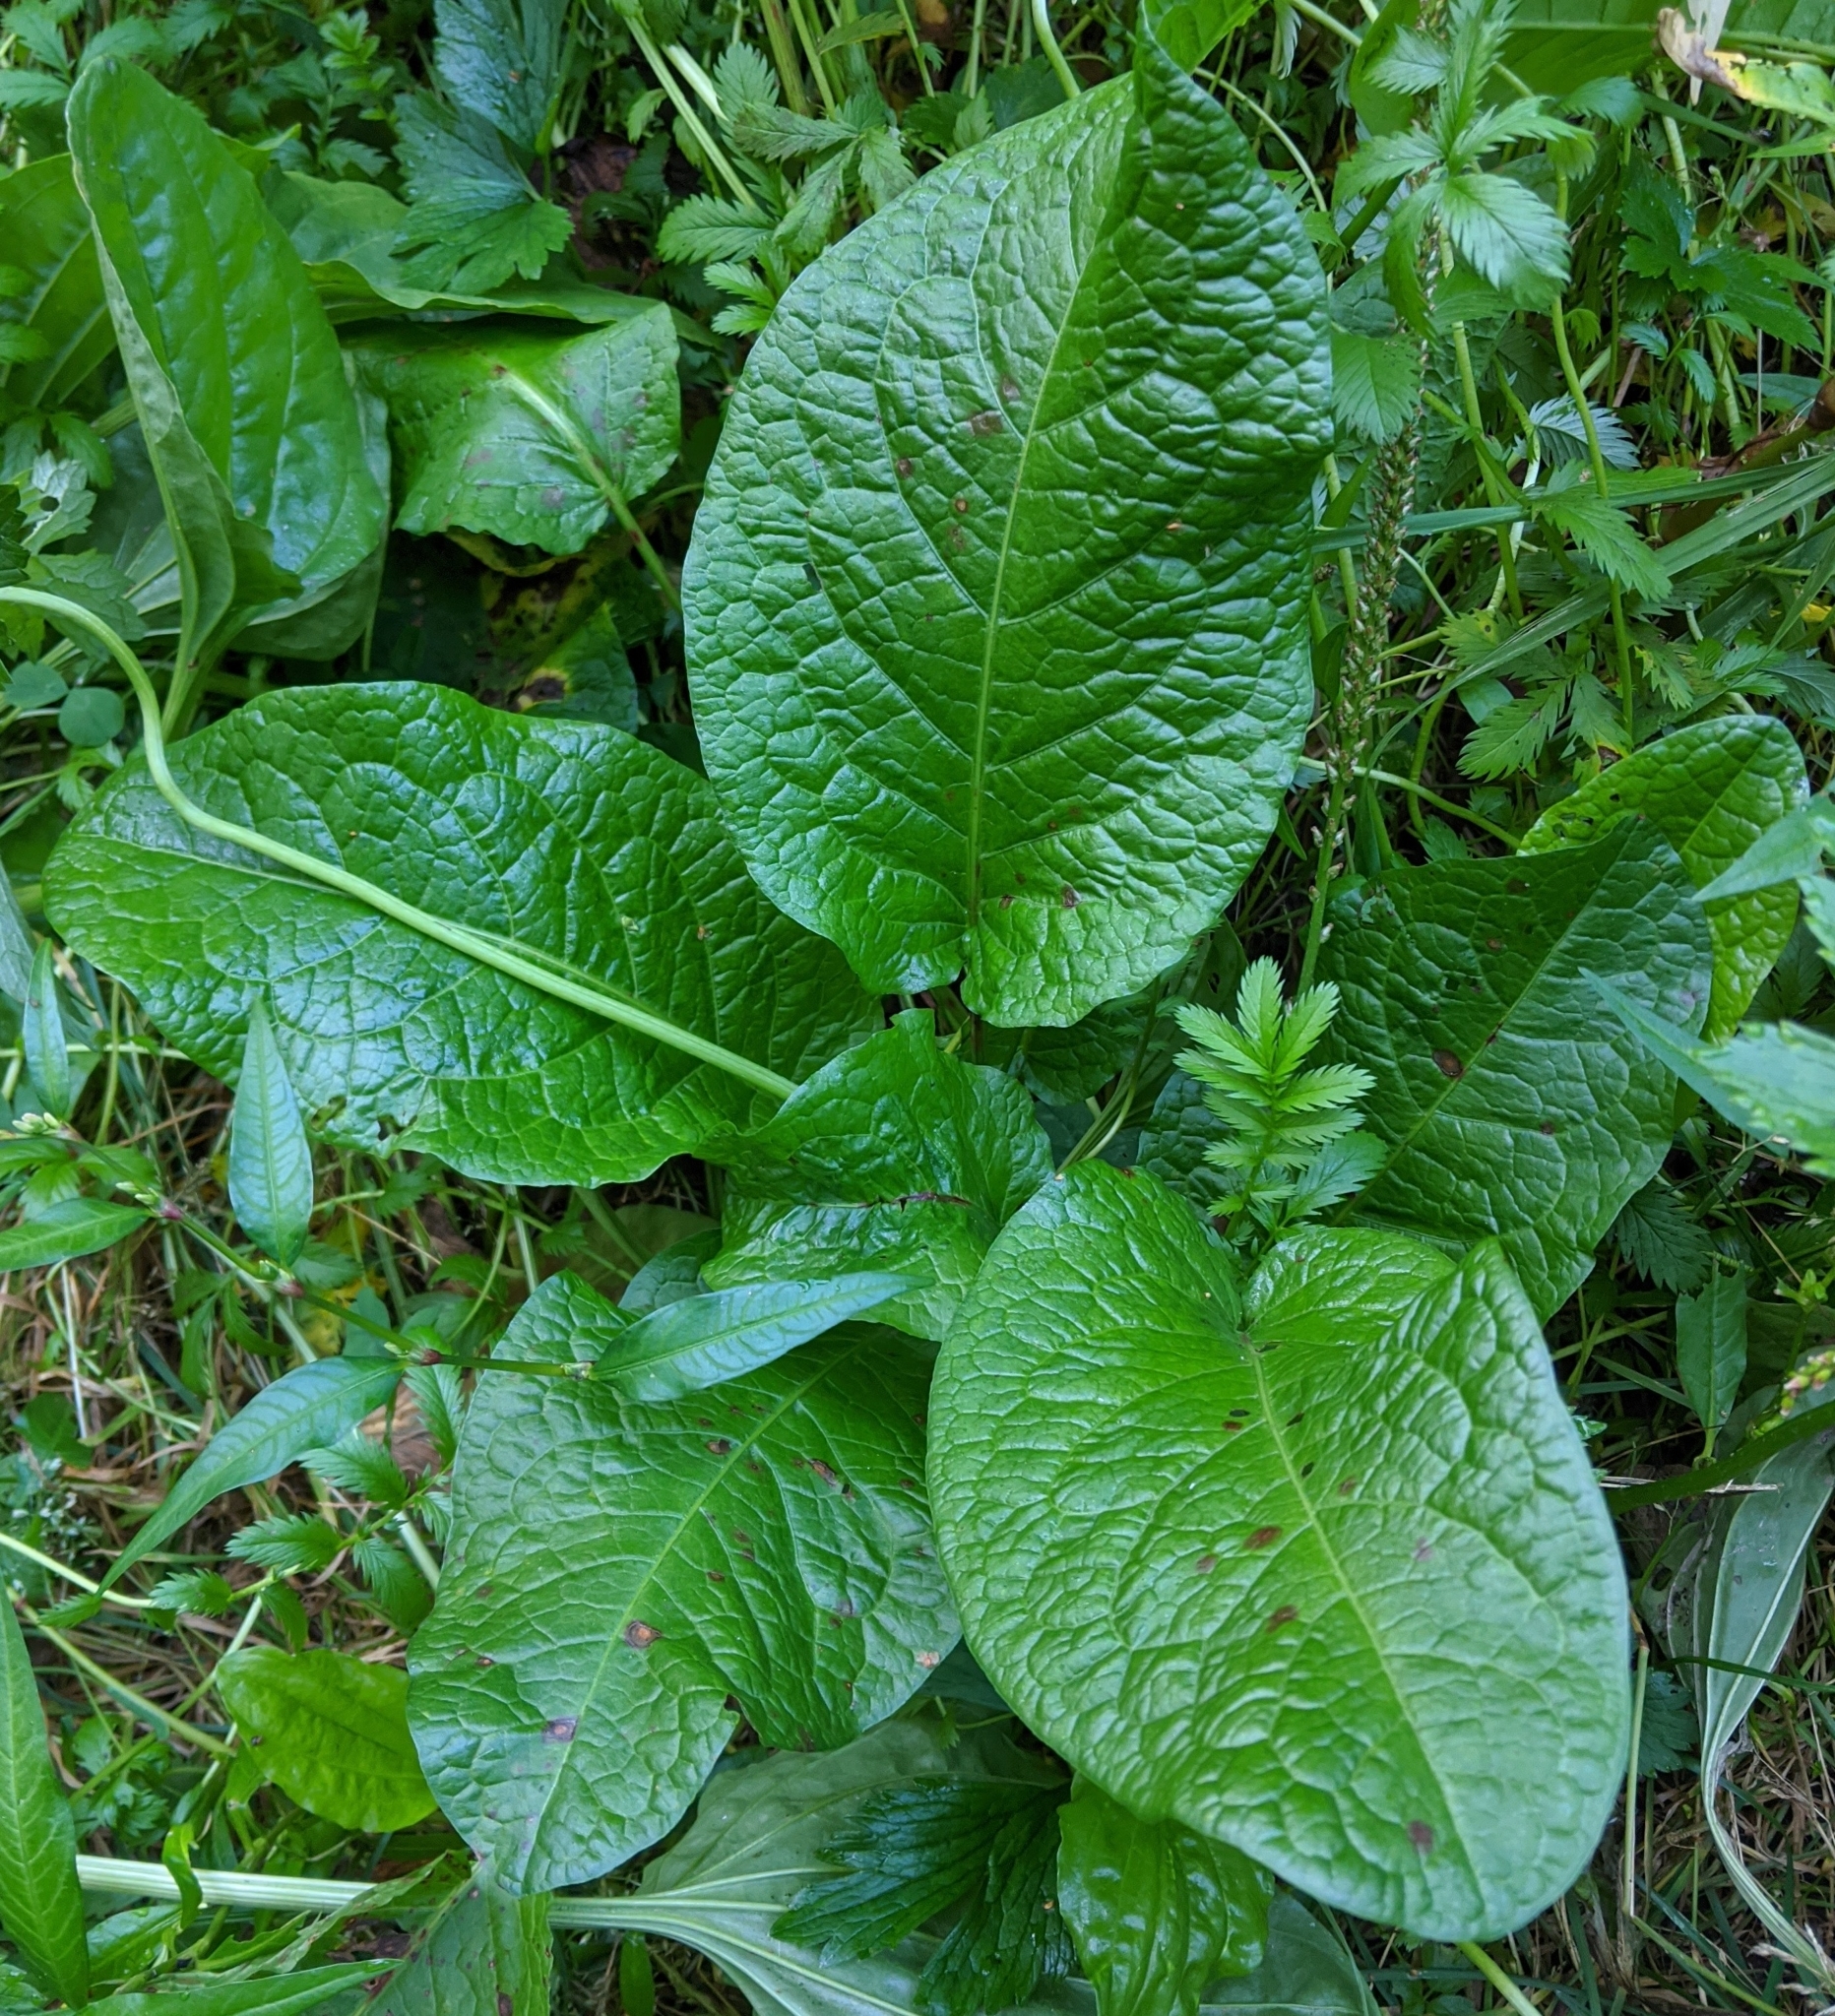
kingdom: Plantae
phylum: Tracheophyta
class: Magnoliopsida
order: Caryophyllales
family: Polygonaceae
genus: Rumex
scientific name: Rumex obtusifolius
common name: Bitter dock
